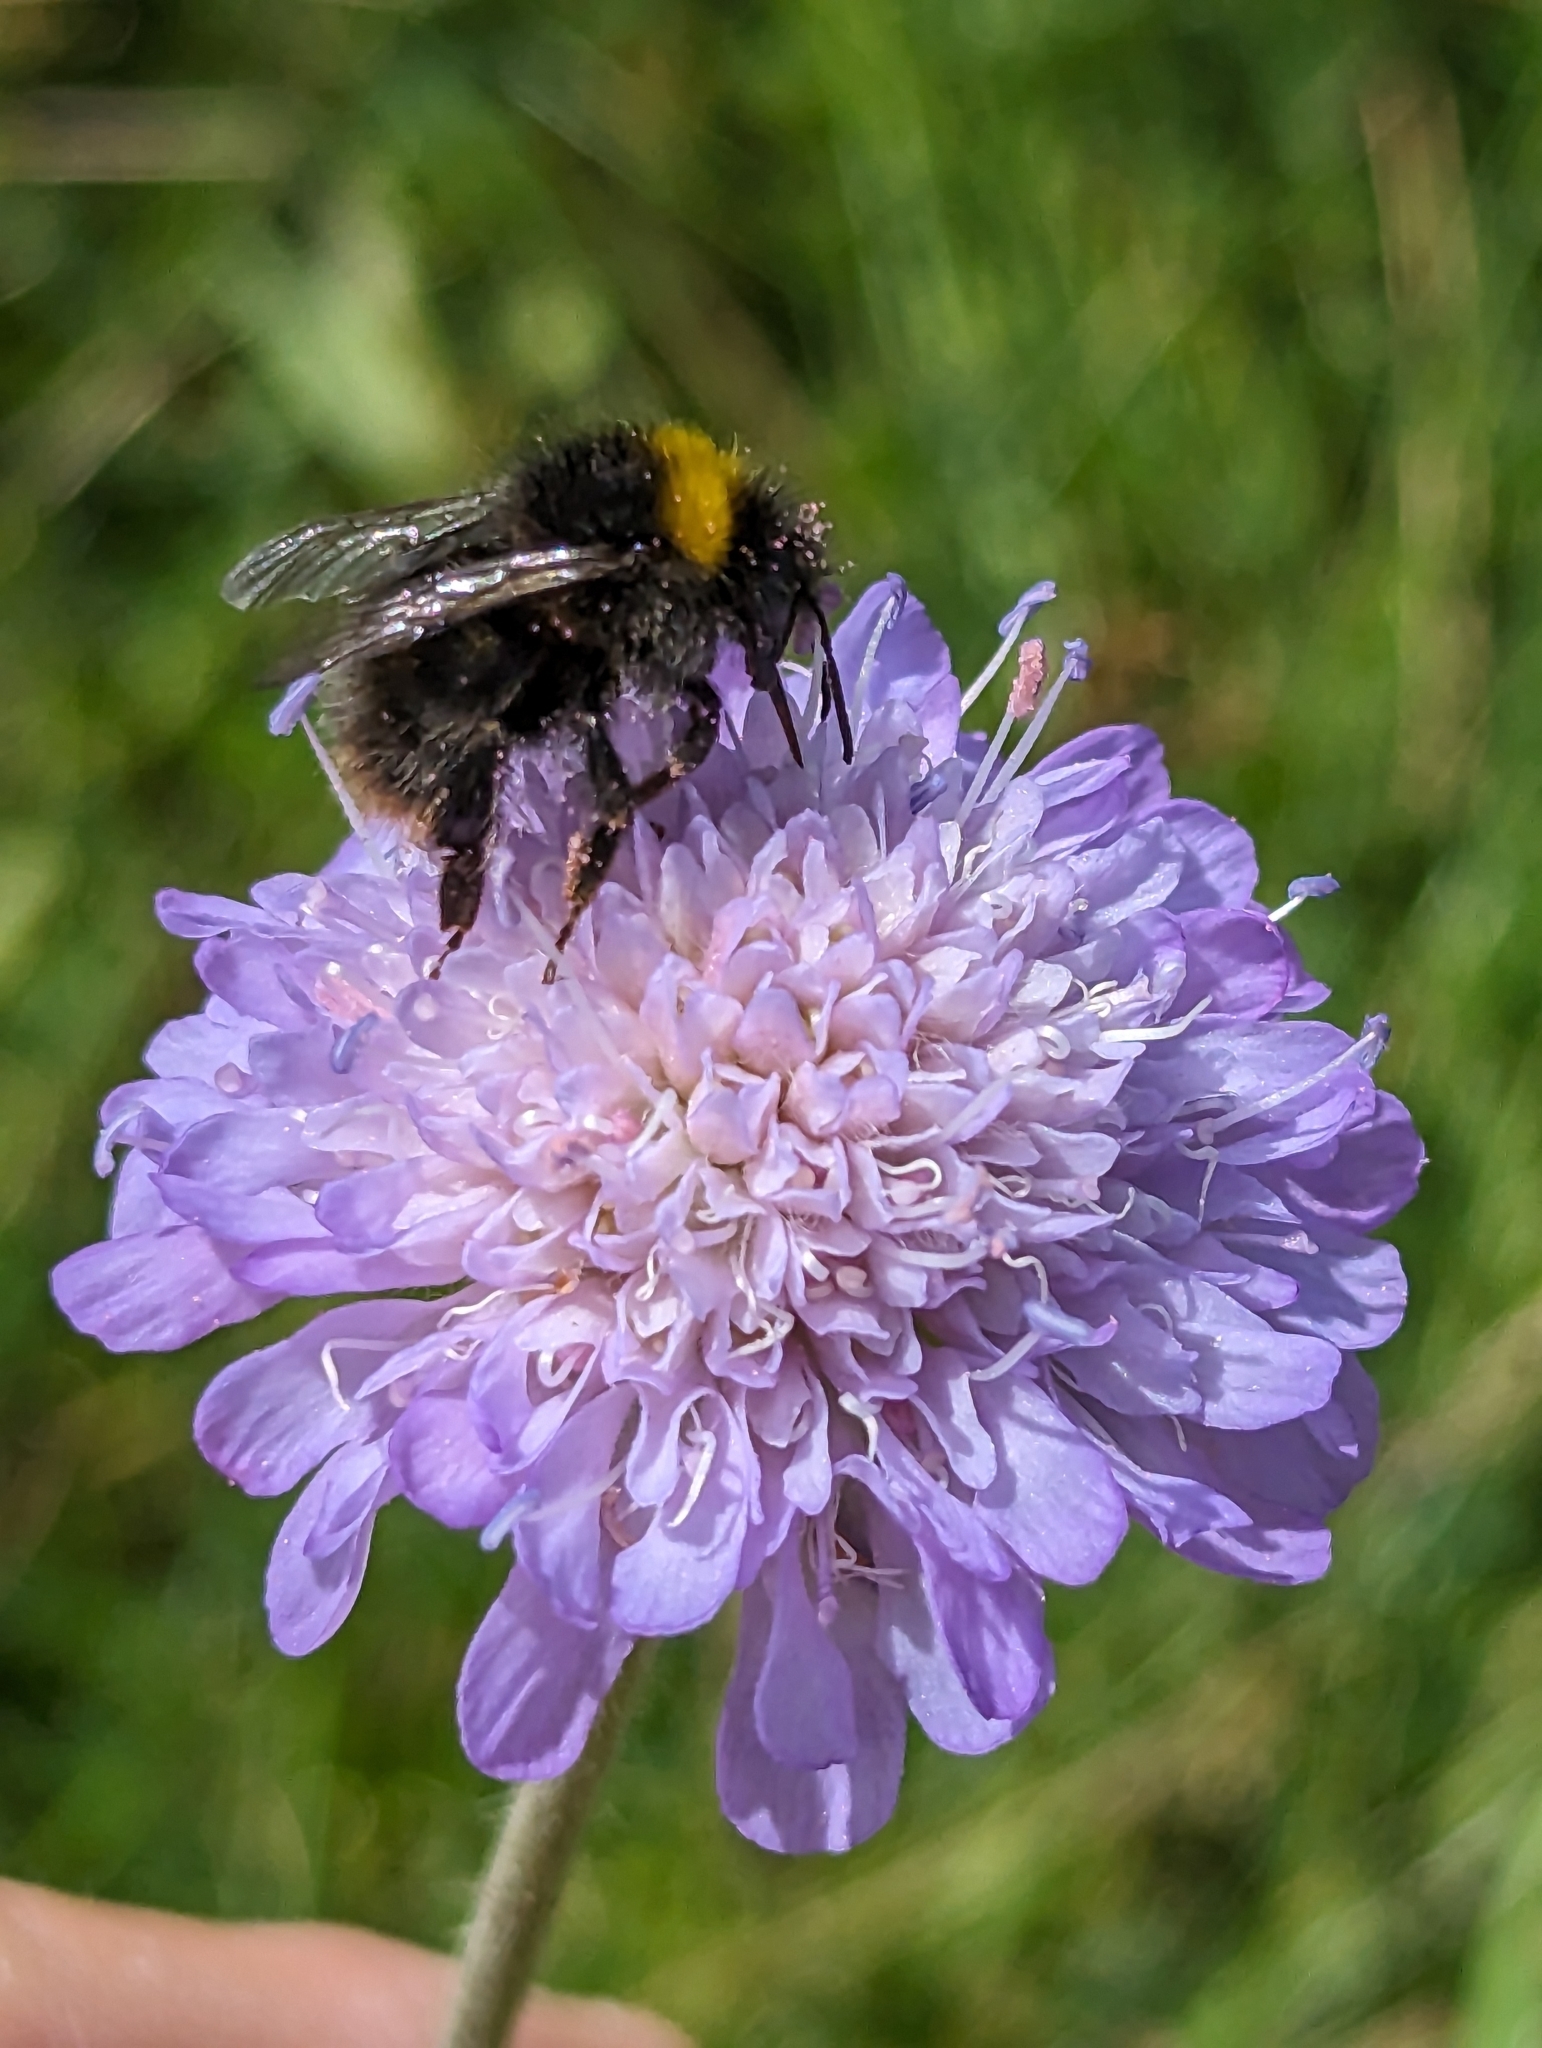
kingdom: Animalia
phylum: Arthropoda
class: Insecta
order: Hymenoptera
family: Apidae
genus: Bombus
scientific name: Bombus pratorum
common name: Early humble-bee
